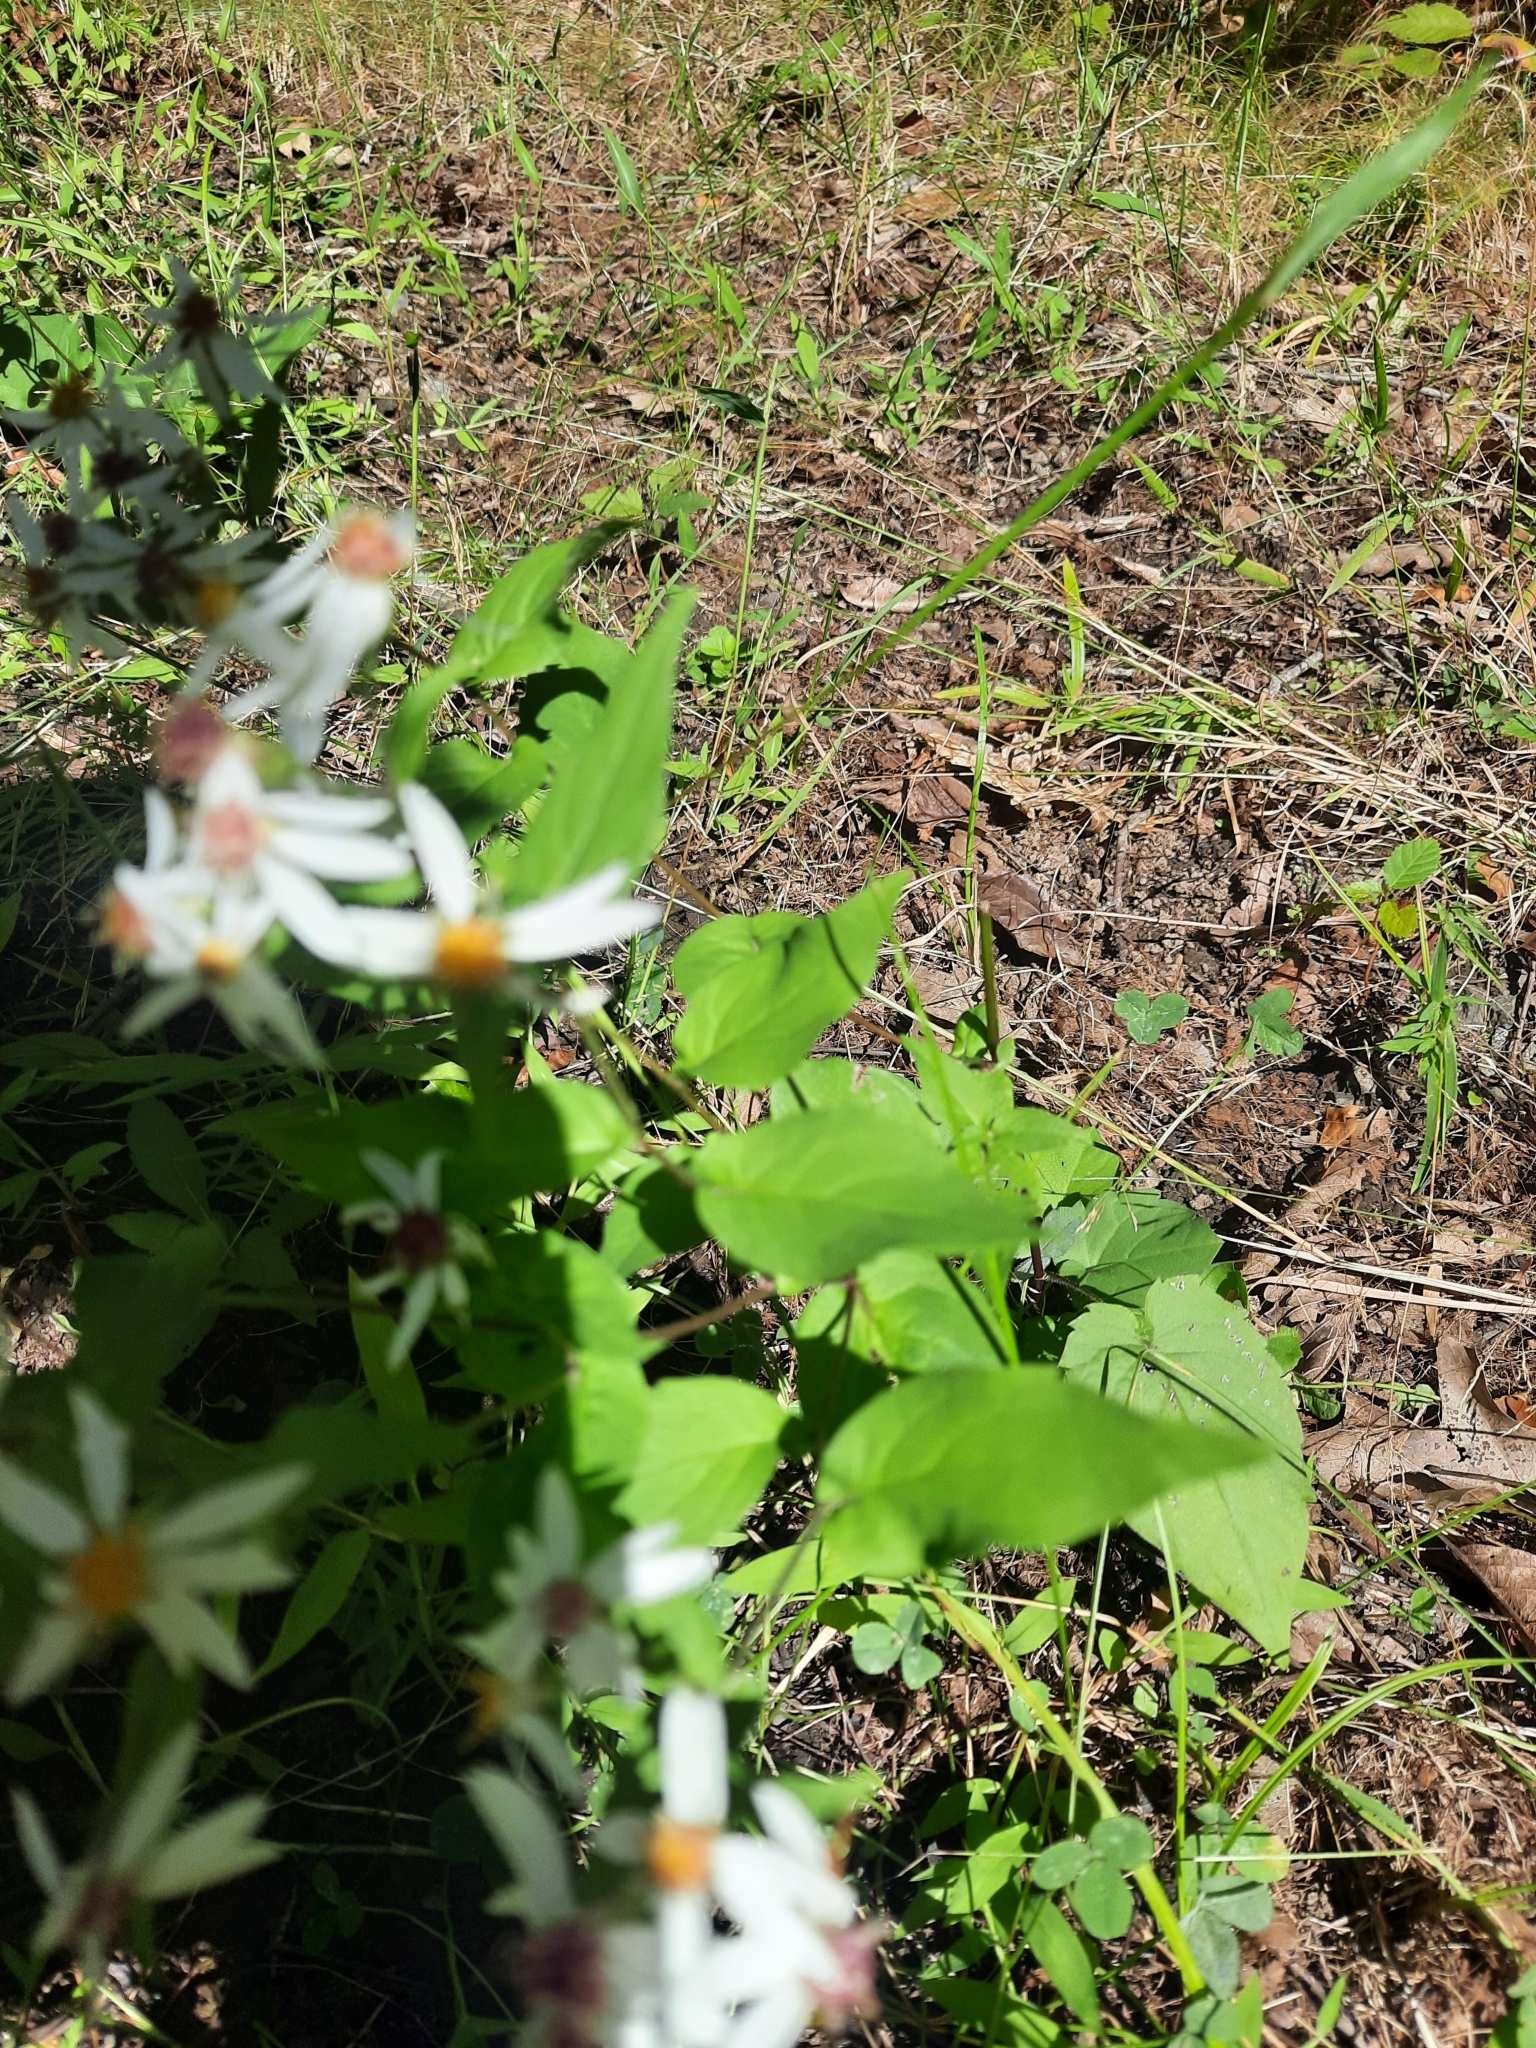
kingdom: Plantae
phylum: Tracheophyta
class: Magnoliopsida
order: Asterales
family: Asteraceae
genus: Eurybia
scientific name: Eurybia divaricata
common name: White wood aster
